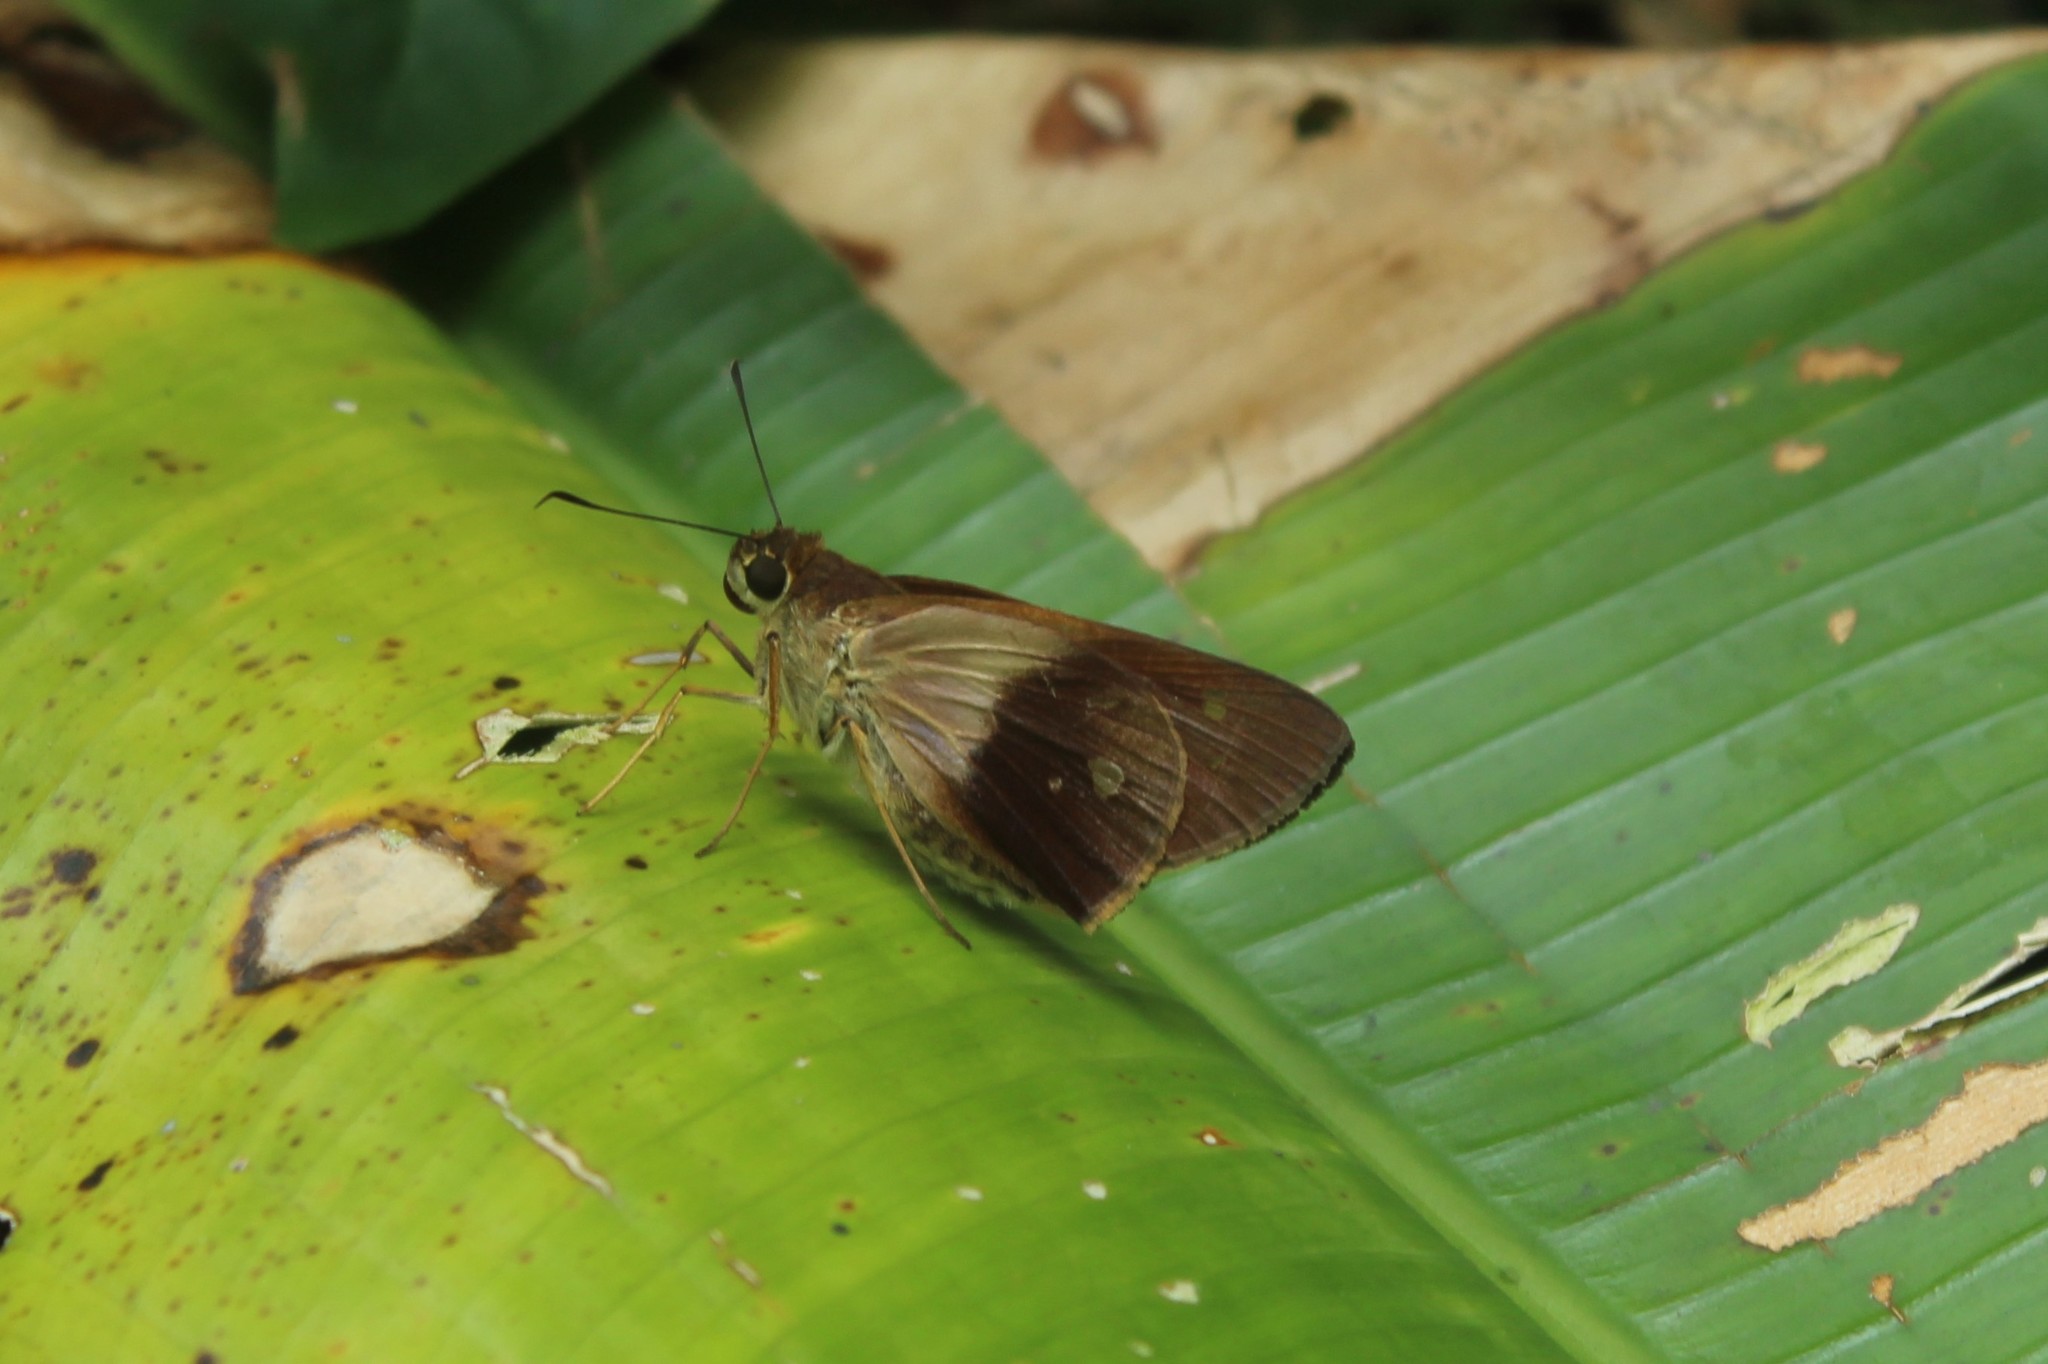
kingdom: Animalia
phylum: Arthropoda
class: Insecta
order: Lepidoptera
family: Hesperiidae
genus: Calpodes
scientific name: Calpodes esperi
